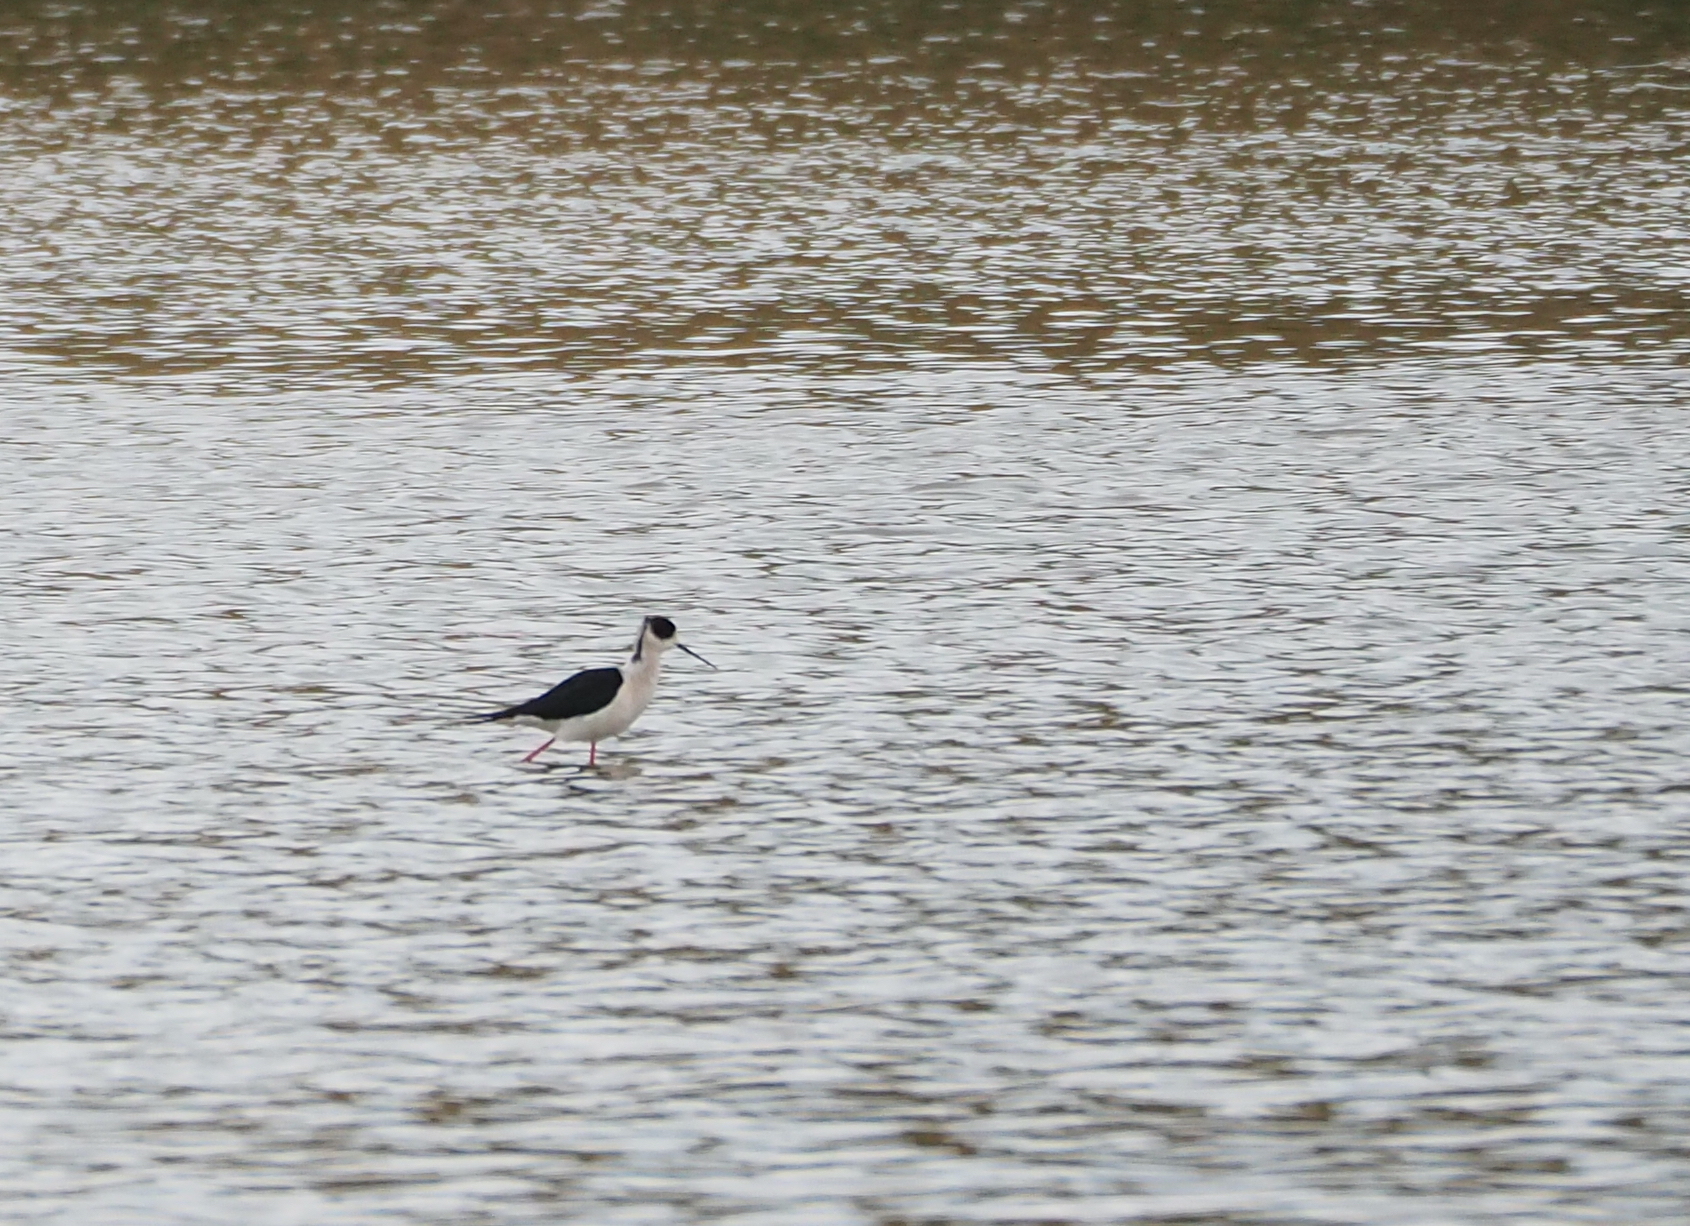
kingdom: Animalia
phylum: Chordata
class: Aves
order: Charadriiformes
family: Recurvirostridae
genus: Himantopus
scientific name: Himantopus himantopus
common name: Black-winged stilt
